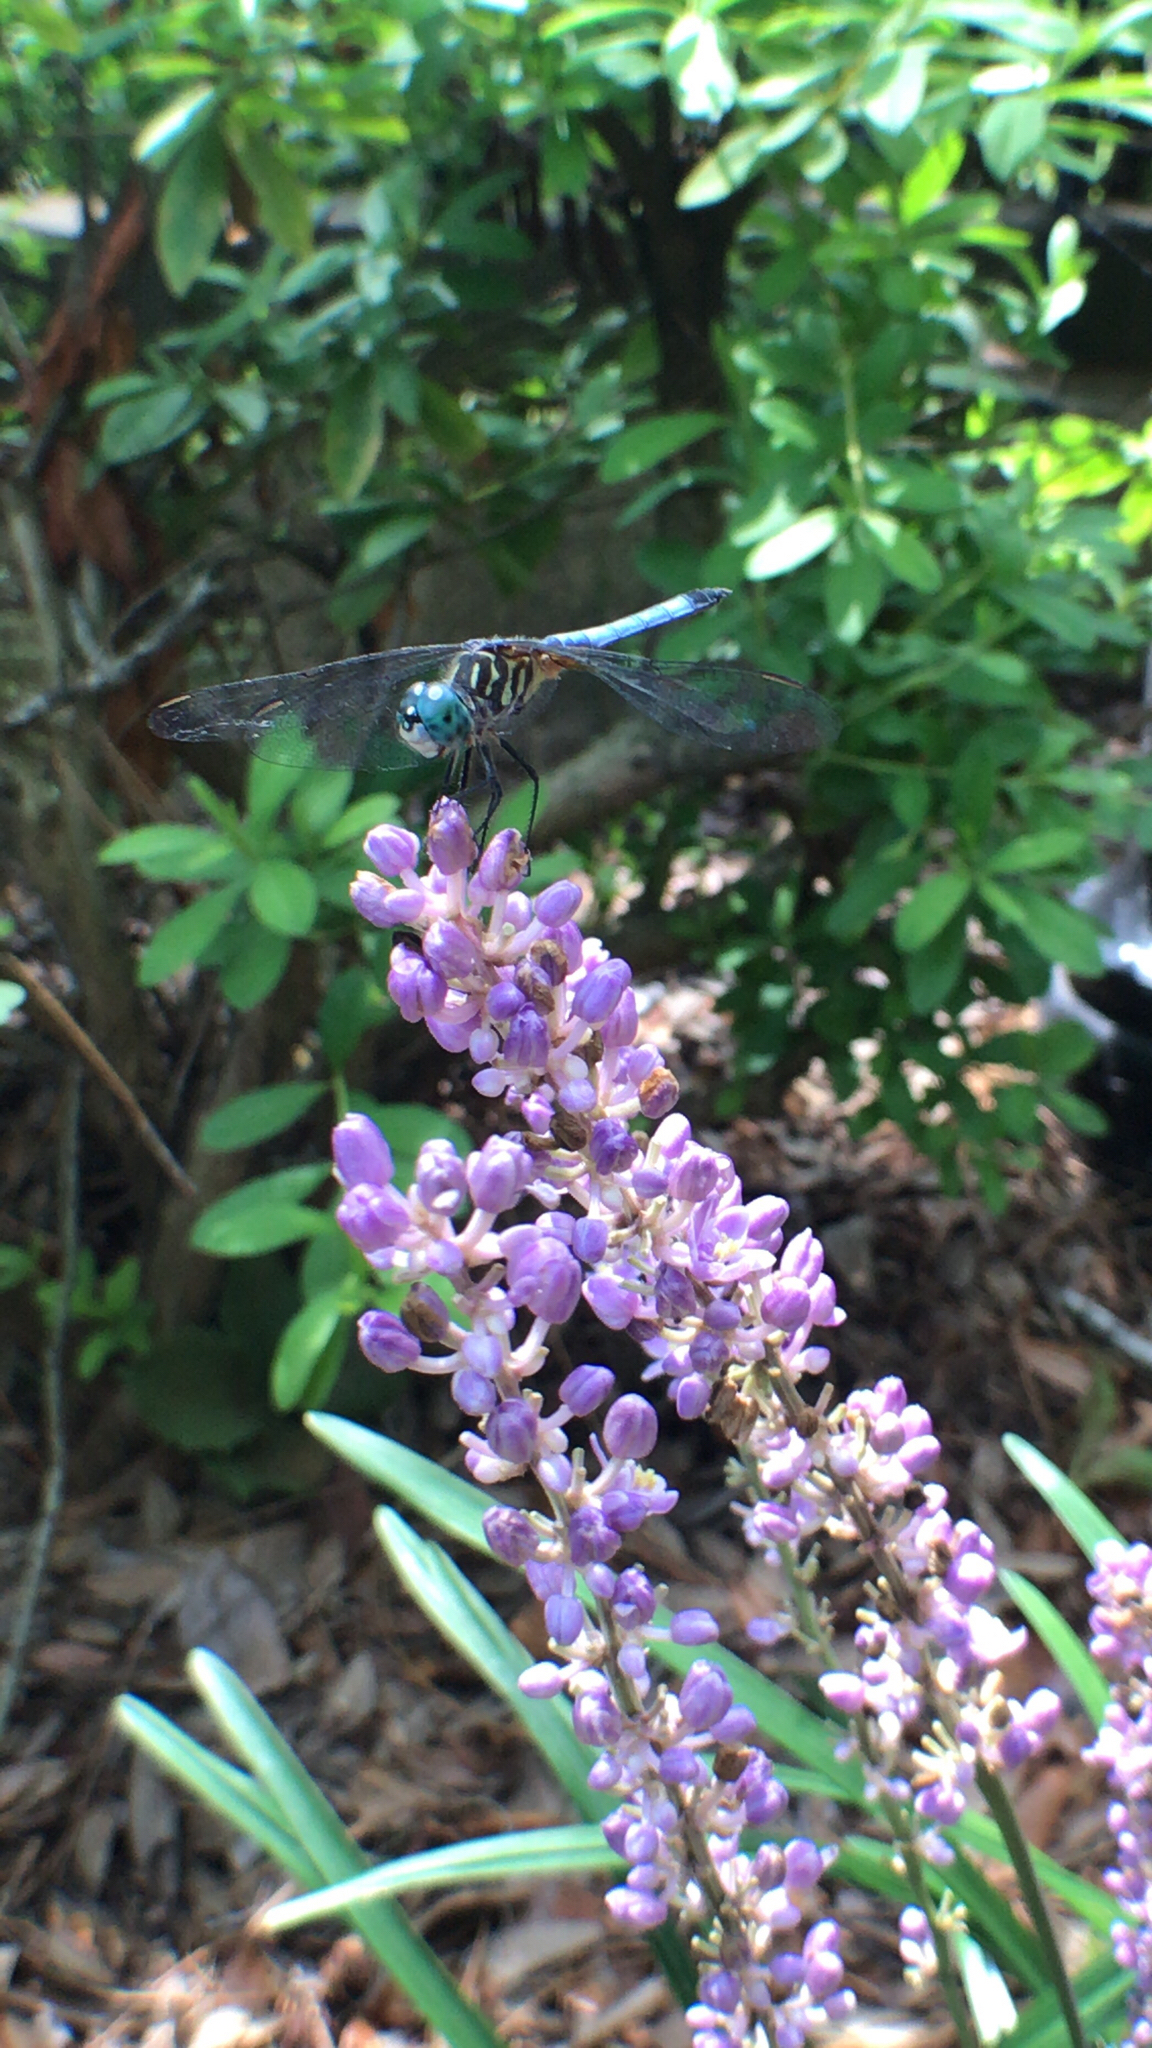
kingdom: Animalia
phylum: Arthropoda
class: Insecta
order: Odonata
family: Libellulidae
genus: Pachydiplax
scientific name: Pachydiplax longipennis
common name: Blue dasher
